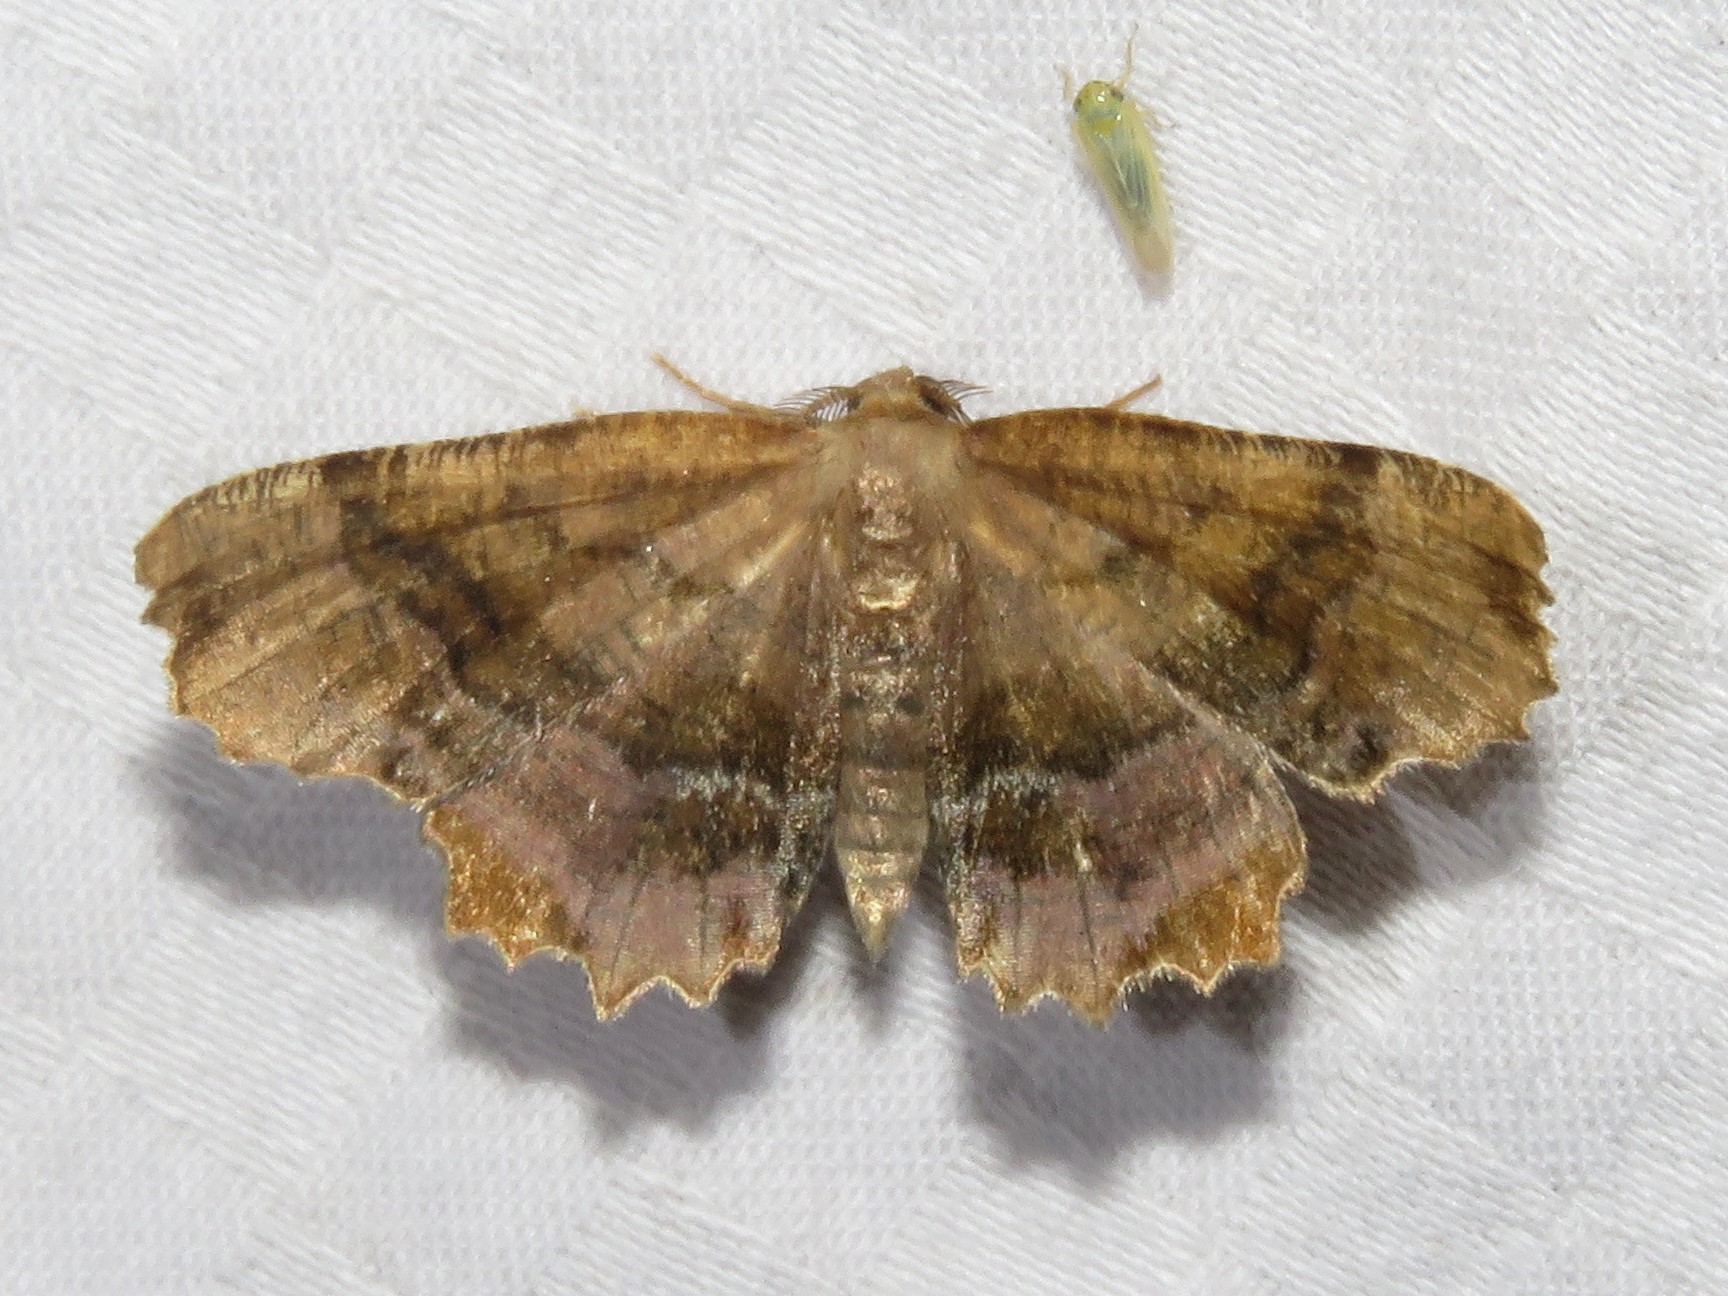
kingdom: Animalia
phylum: Arthropoda
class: Insecta
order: Lepidoptera
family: Geometridae
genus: Cepphis
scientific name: Cepphis armataria
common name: Scallop moth
